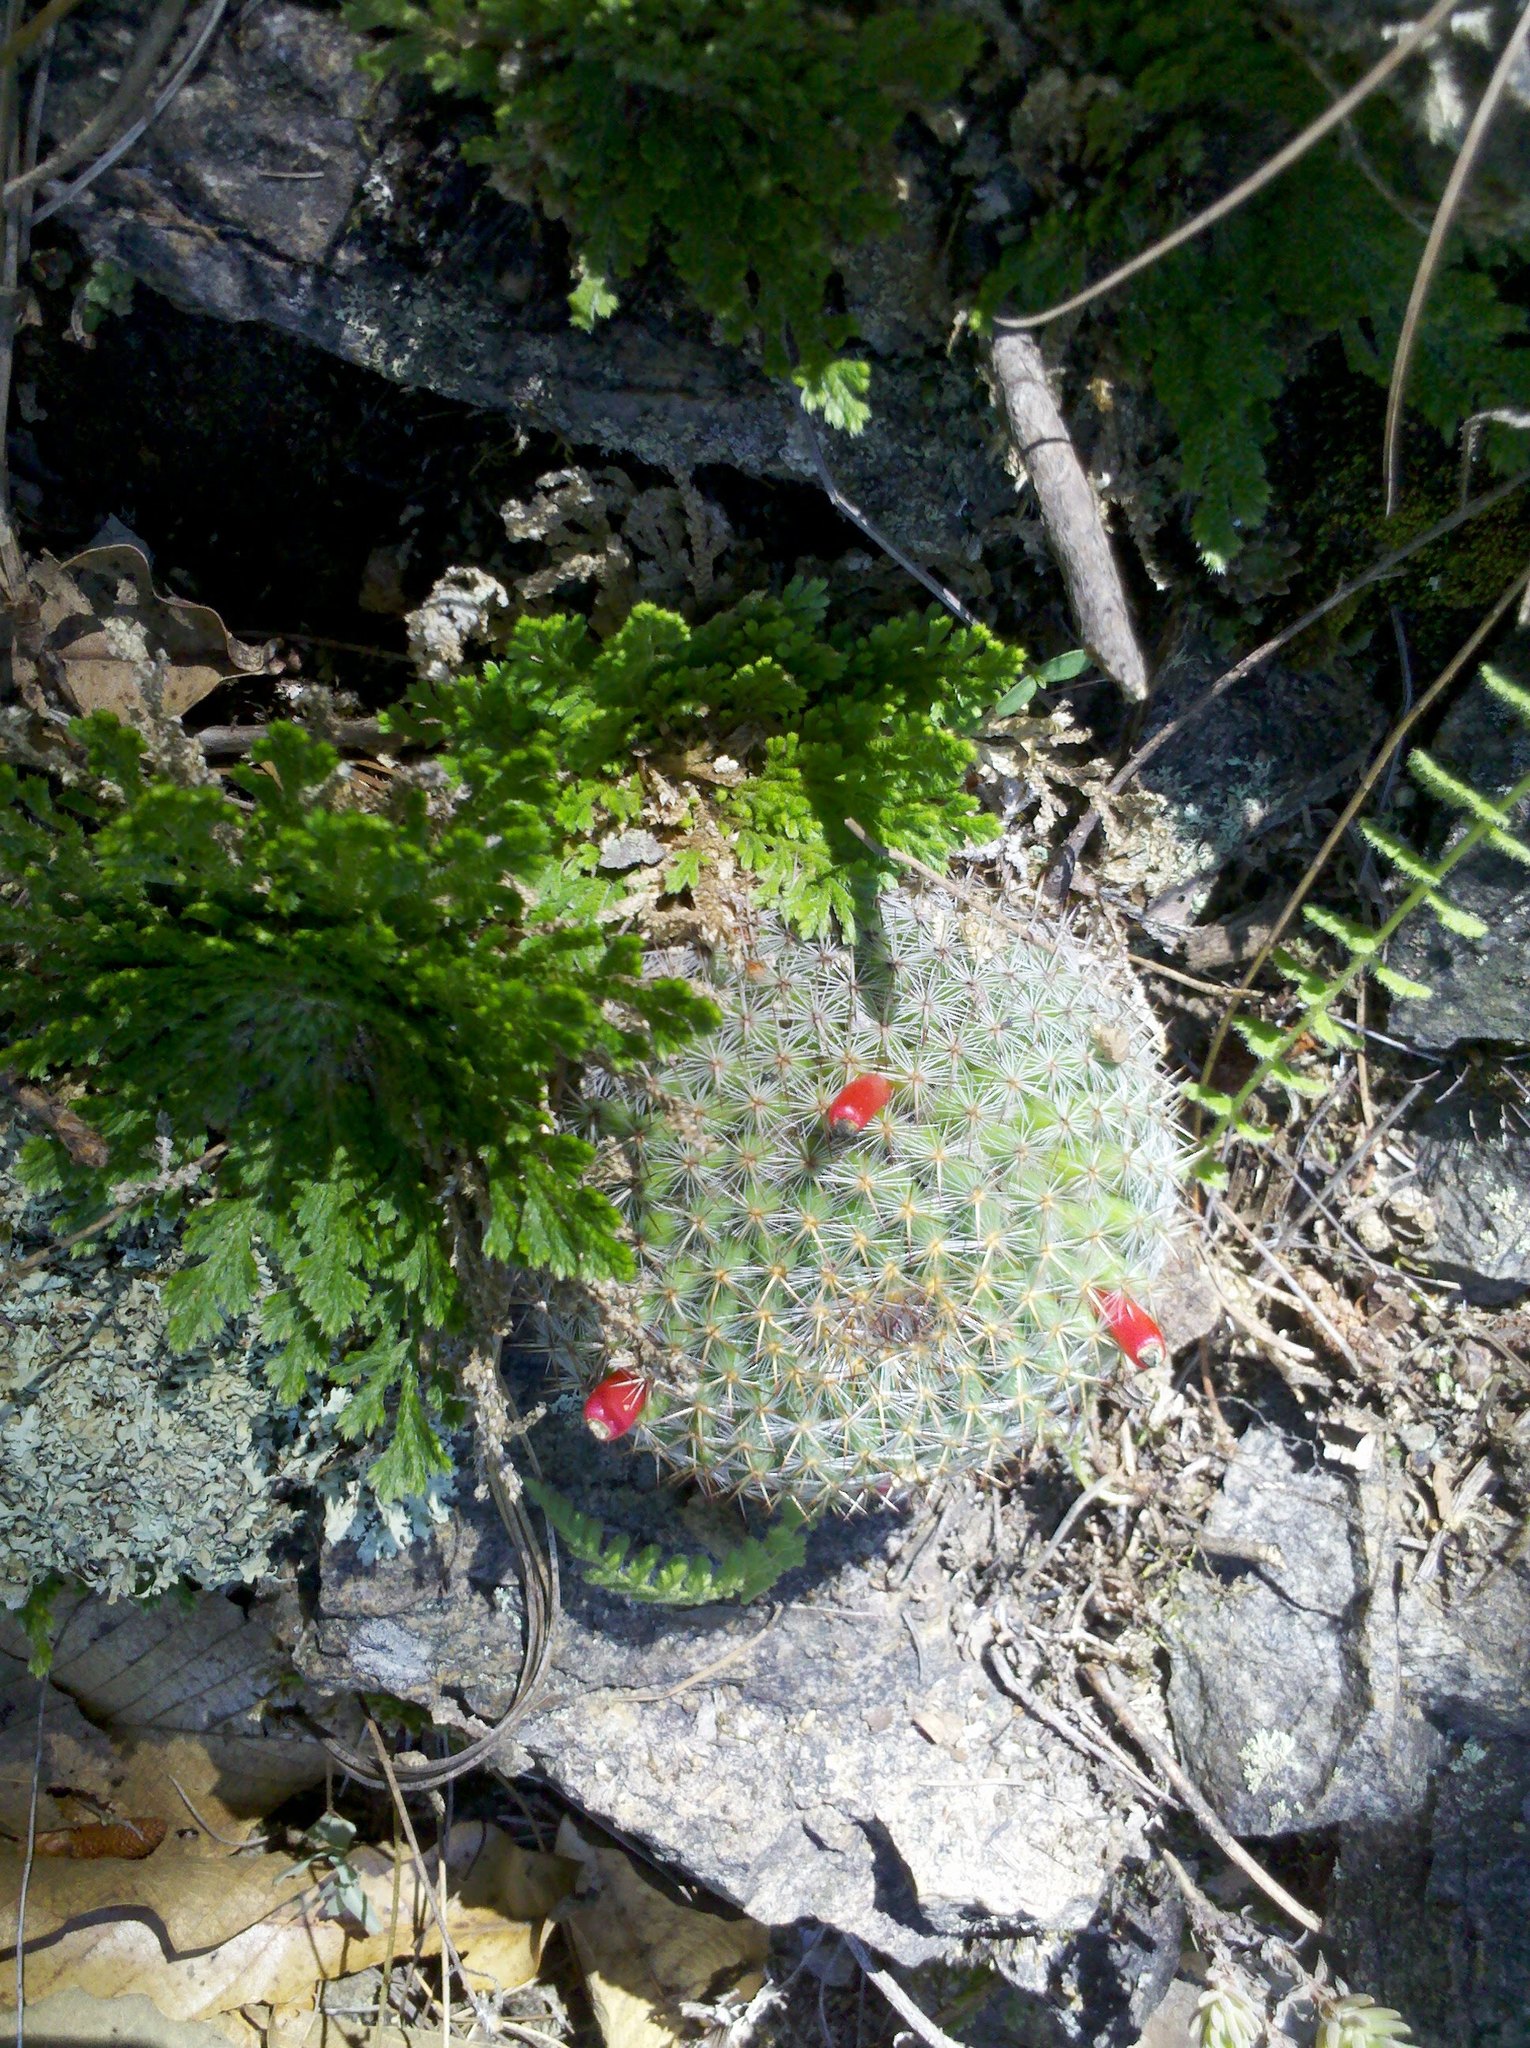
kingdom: Plantae
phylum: Tracheophyta
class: Magnoliopsida
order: Caryophyllales
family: Cactaceae
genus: Mammillaria
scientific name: Mammillaria albilanata
